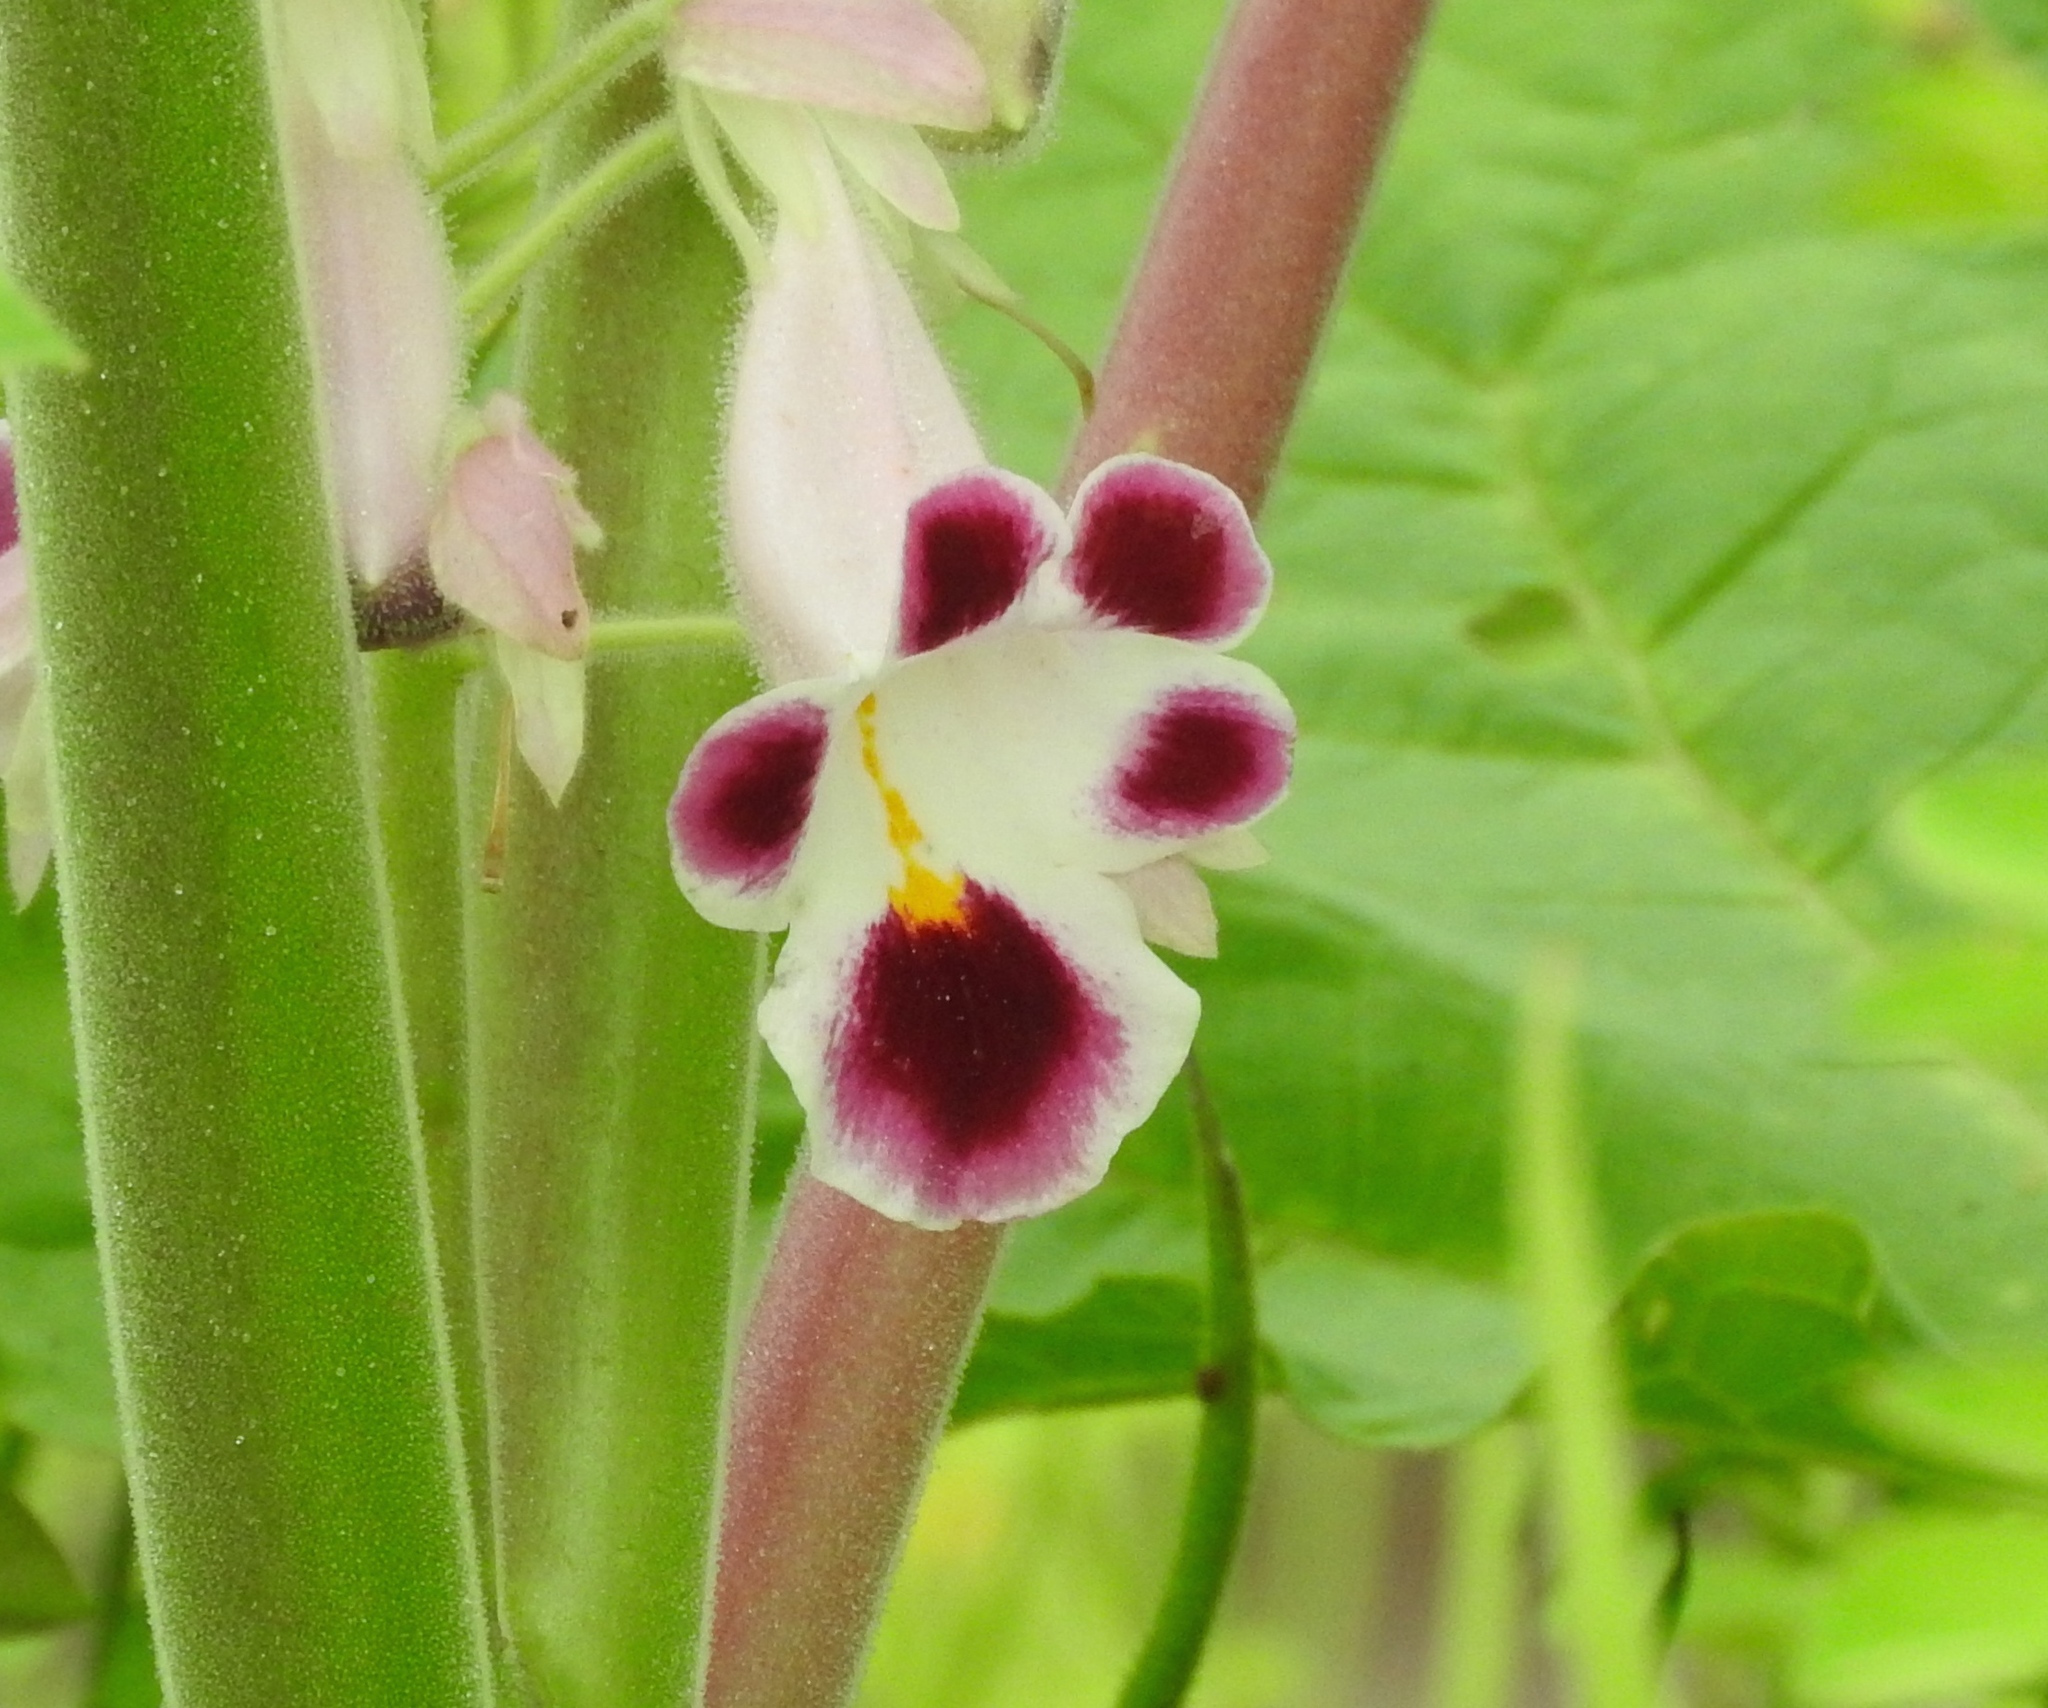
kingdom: Plantae
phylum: Tracheophyta
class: Magnoliopsida
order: Lamiales
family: Martyniaceae
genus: Martynia
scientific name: Martynia annua
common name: Tiger's-claw
